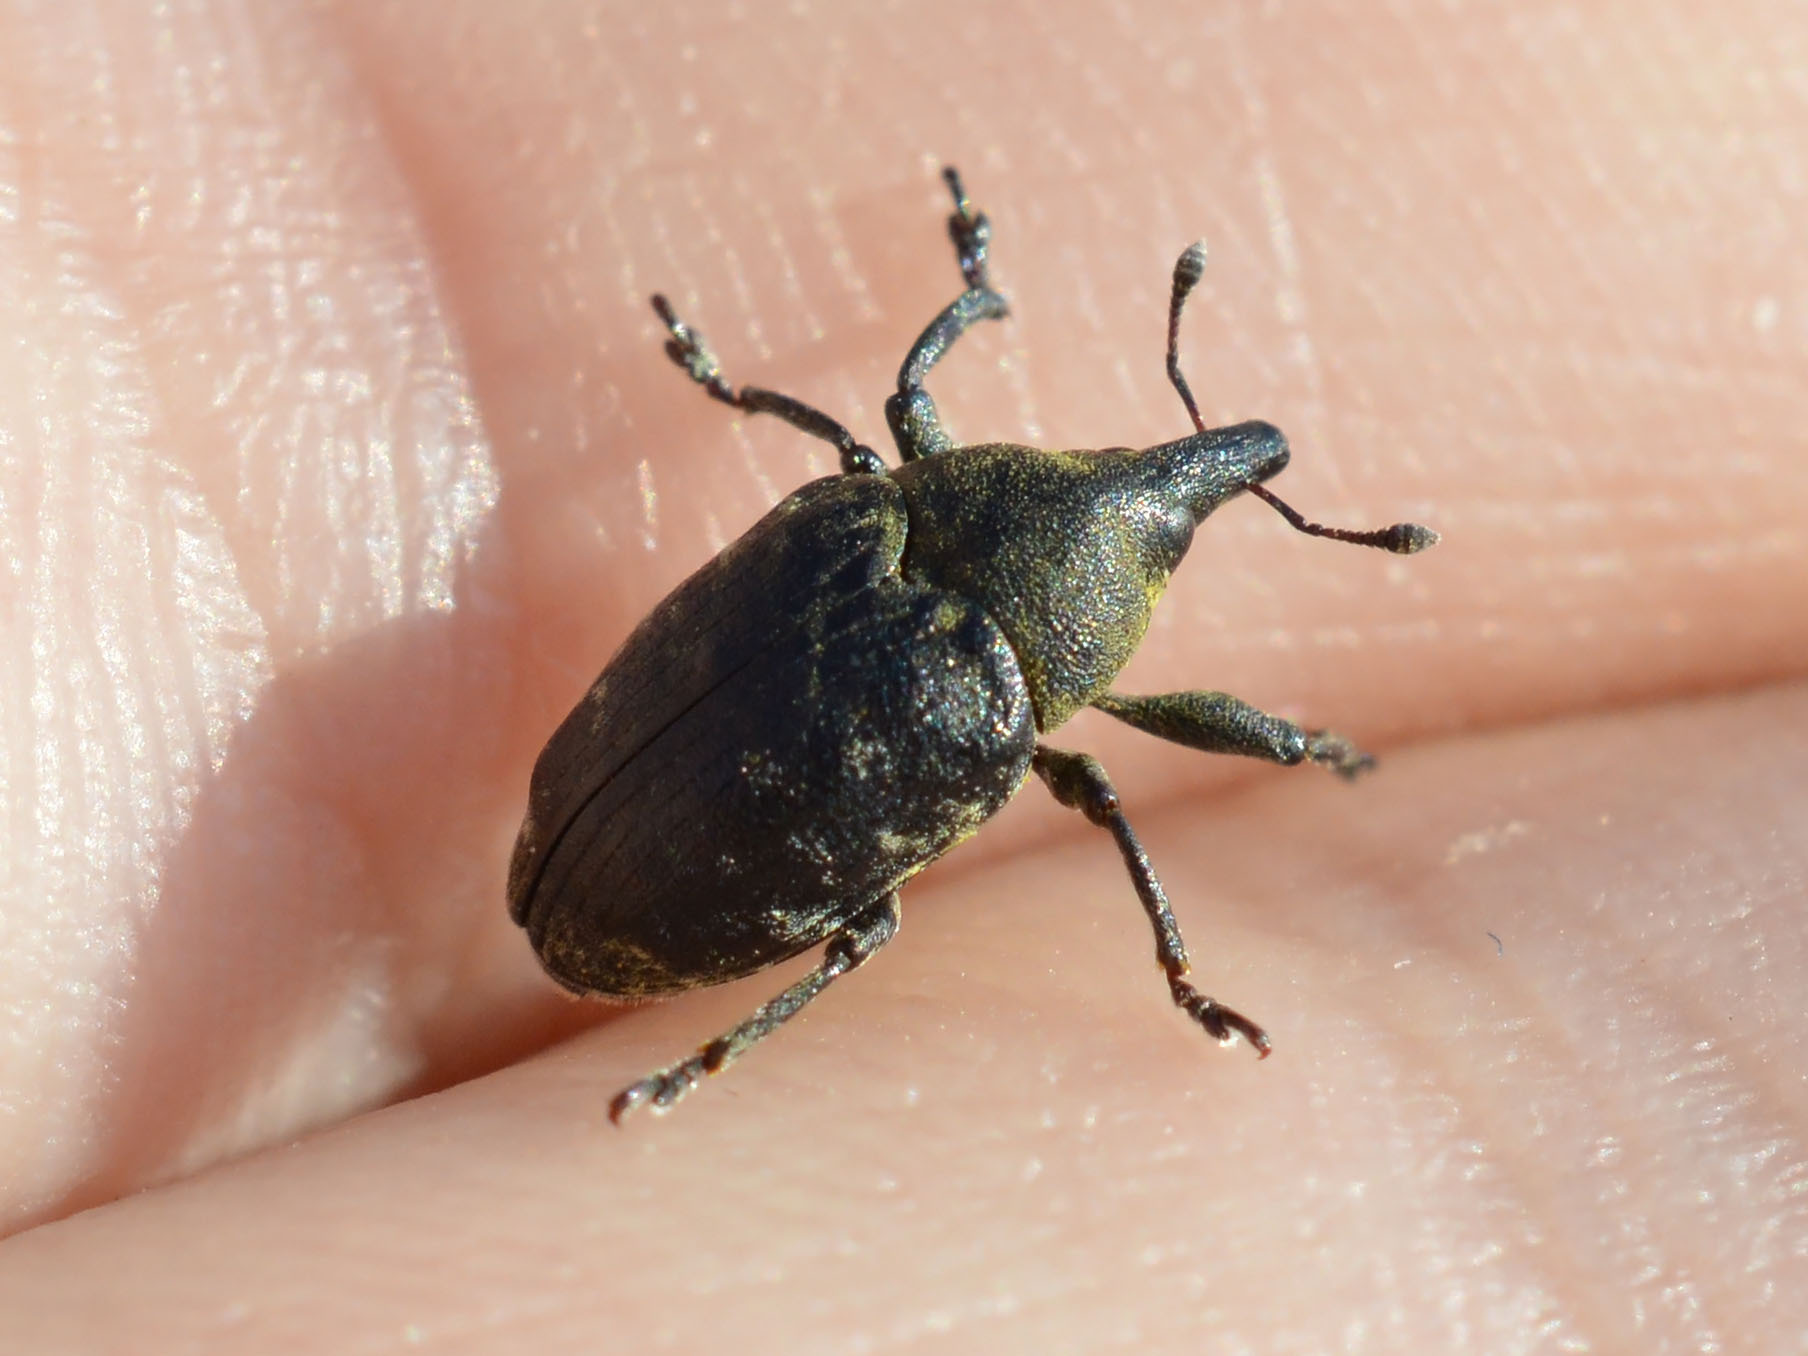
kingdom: Animalia
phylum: Arthropoda
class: Insecta
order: Coleoptera
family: Curculionidae
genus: Larinus
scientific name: Larinus turbinatus
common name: Weevil
